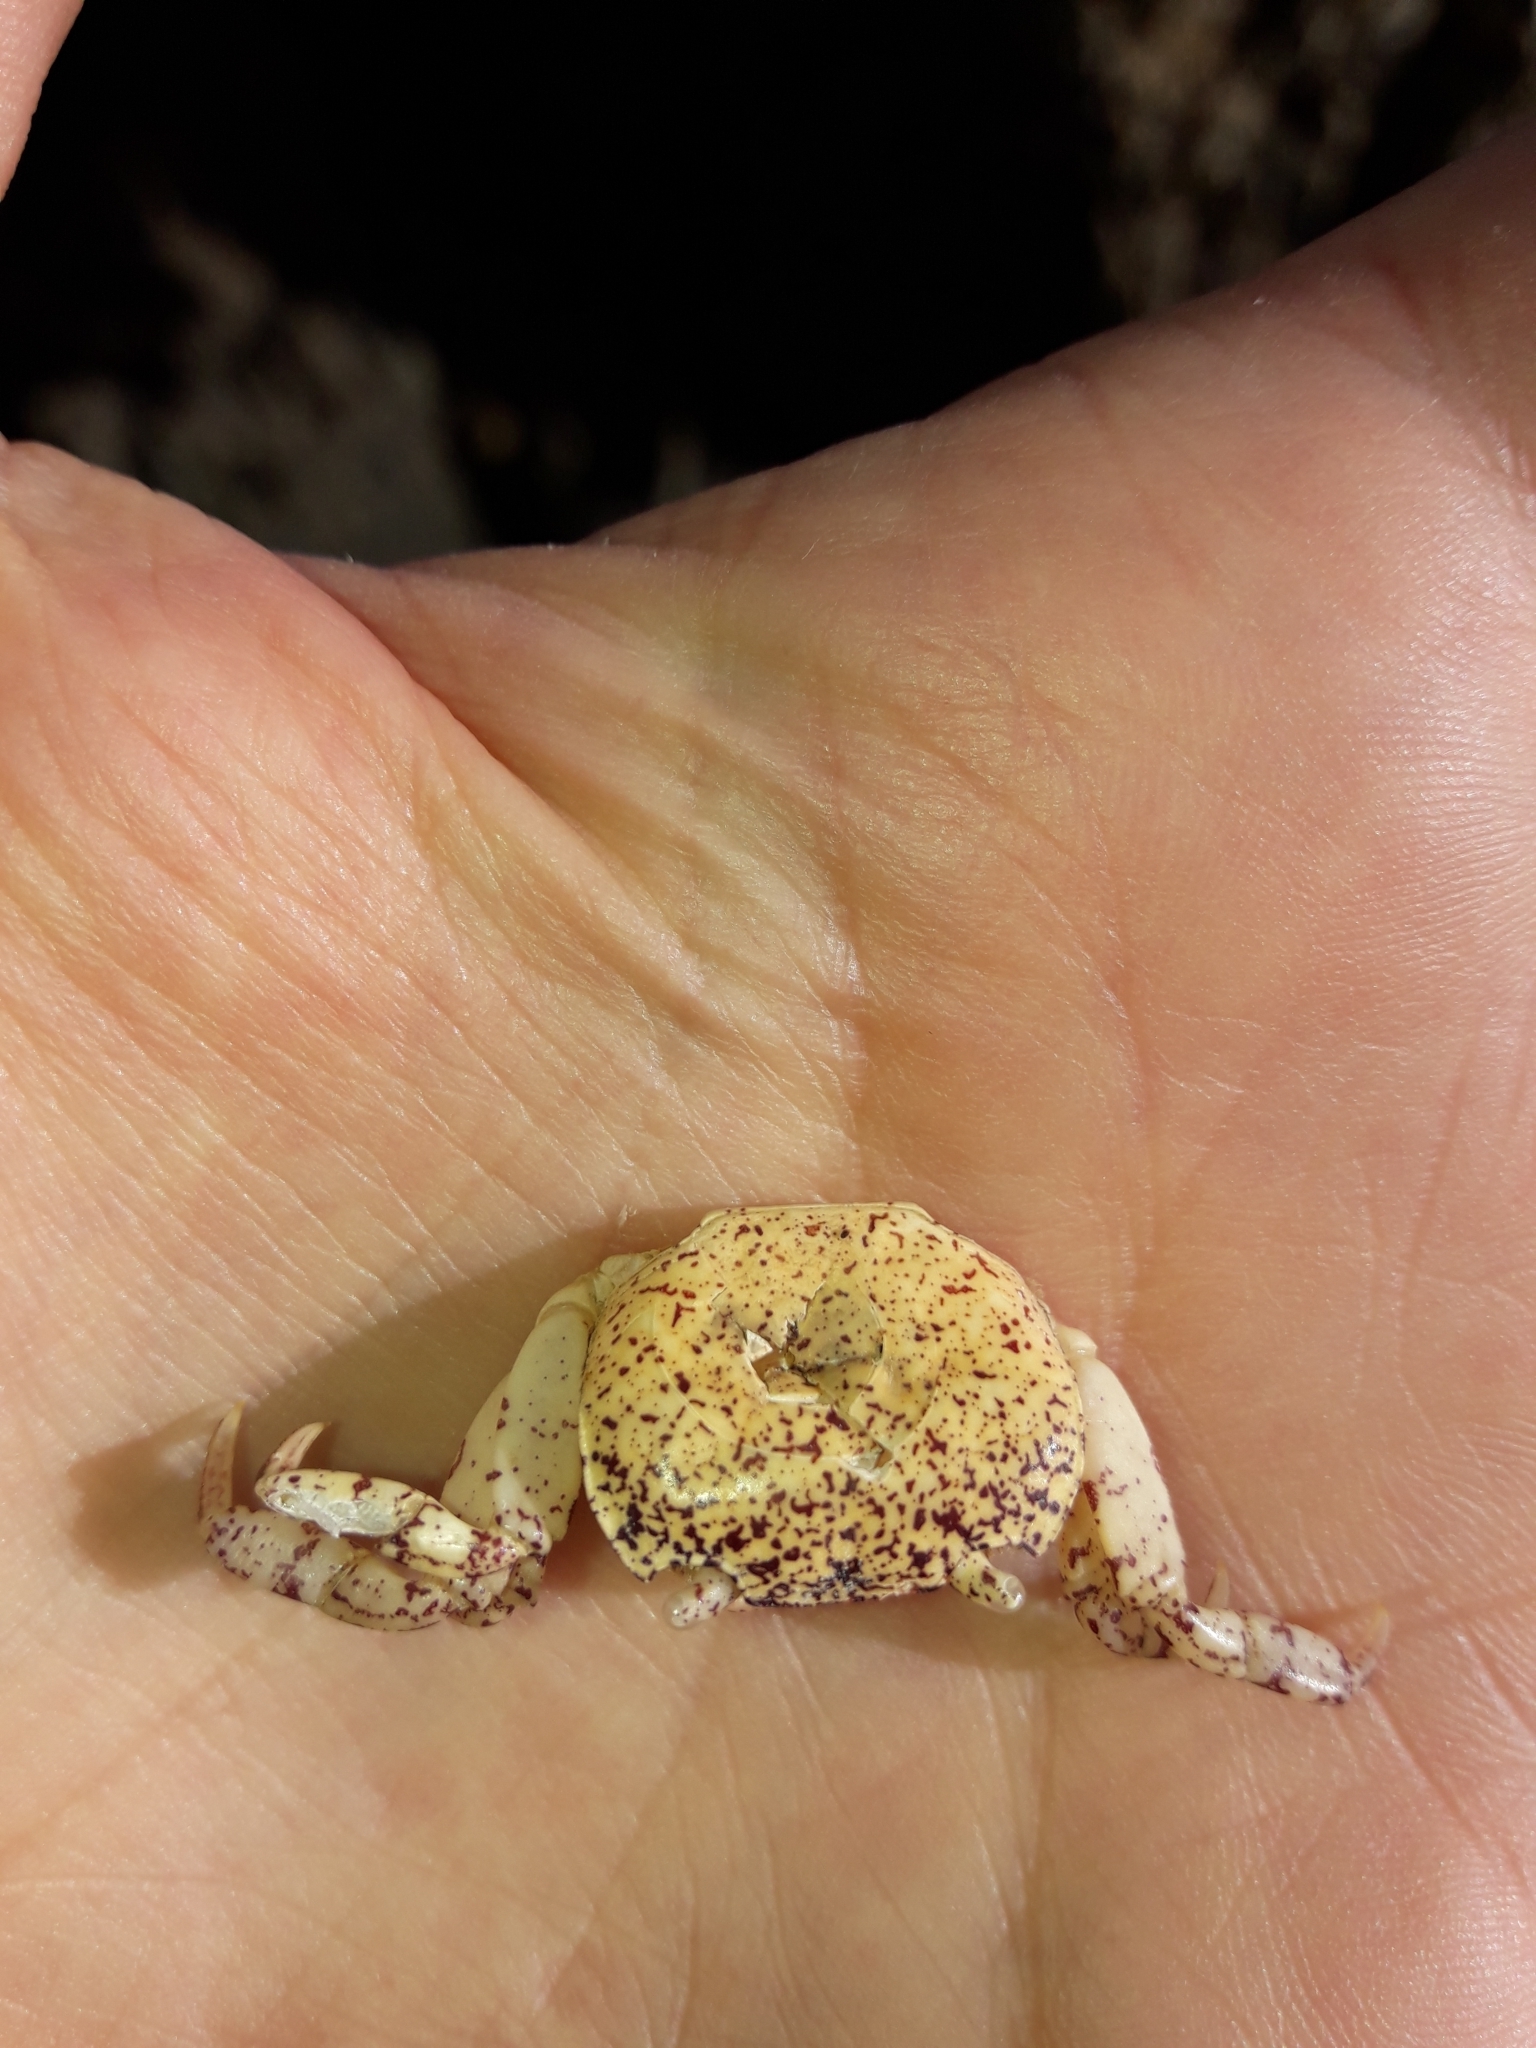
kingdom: Animalia
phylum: Arthropoda
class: Malacostraca
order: Decapoda
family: Varunidae
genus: Cyclograpsus
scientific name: Cyclograpsus lavauxi
